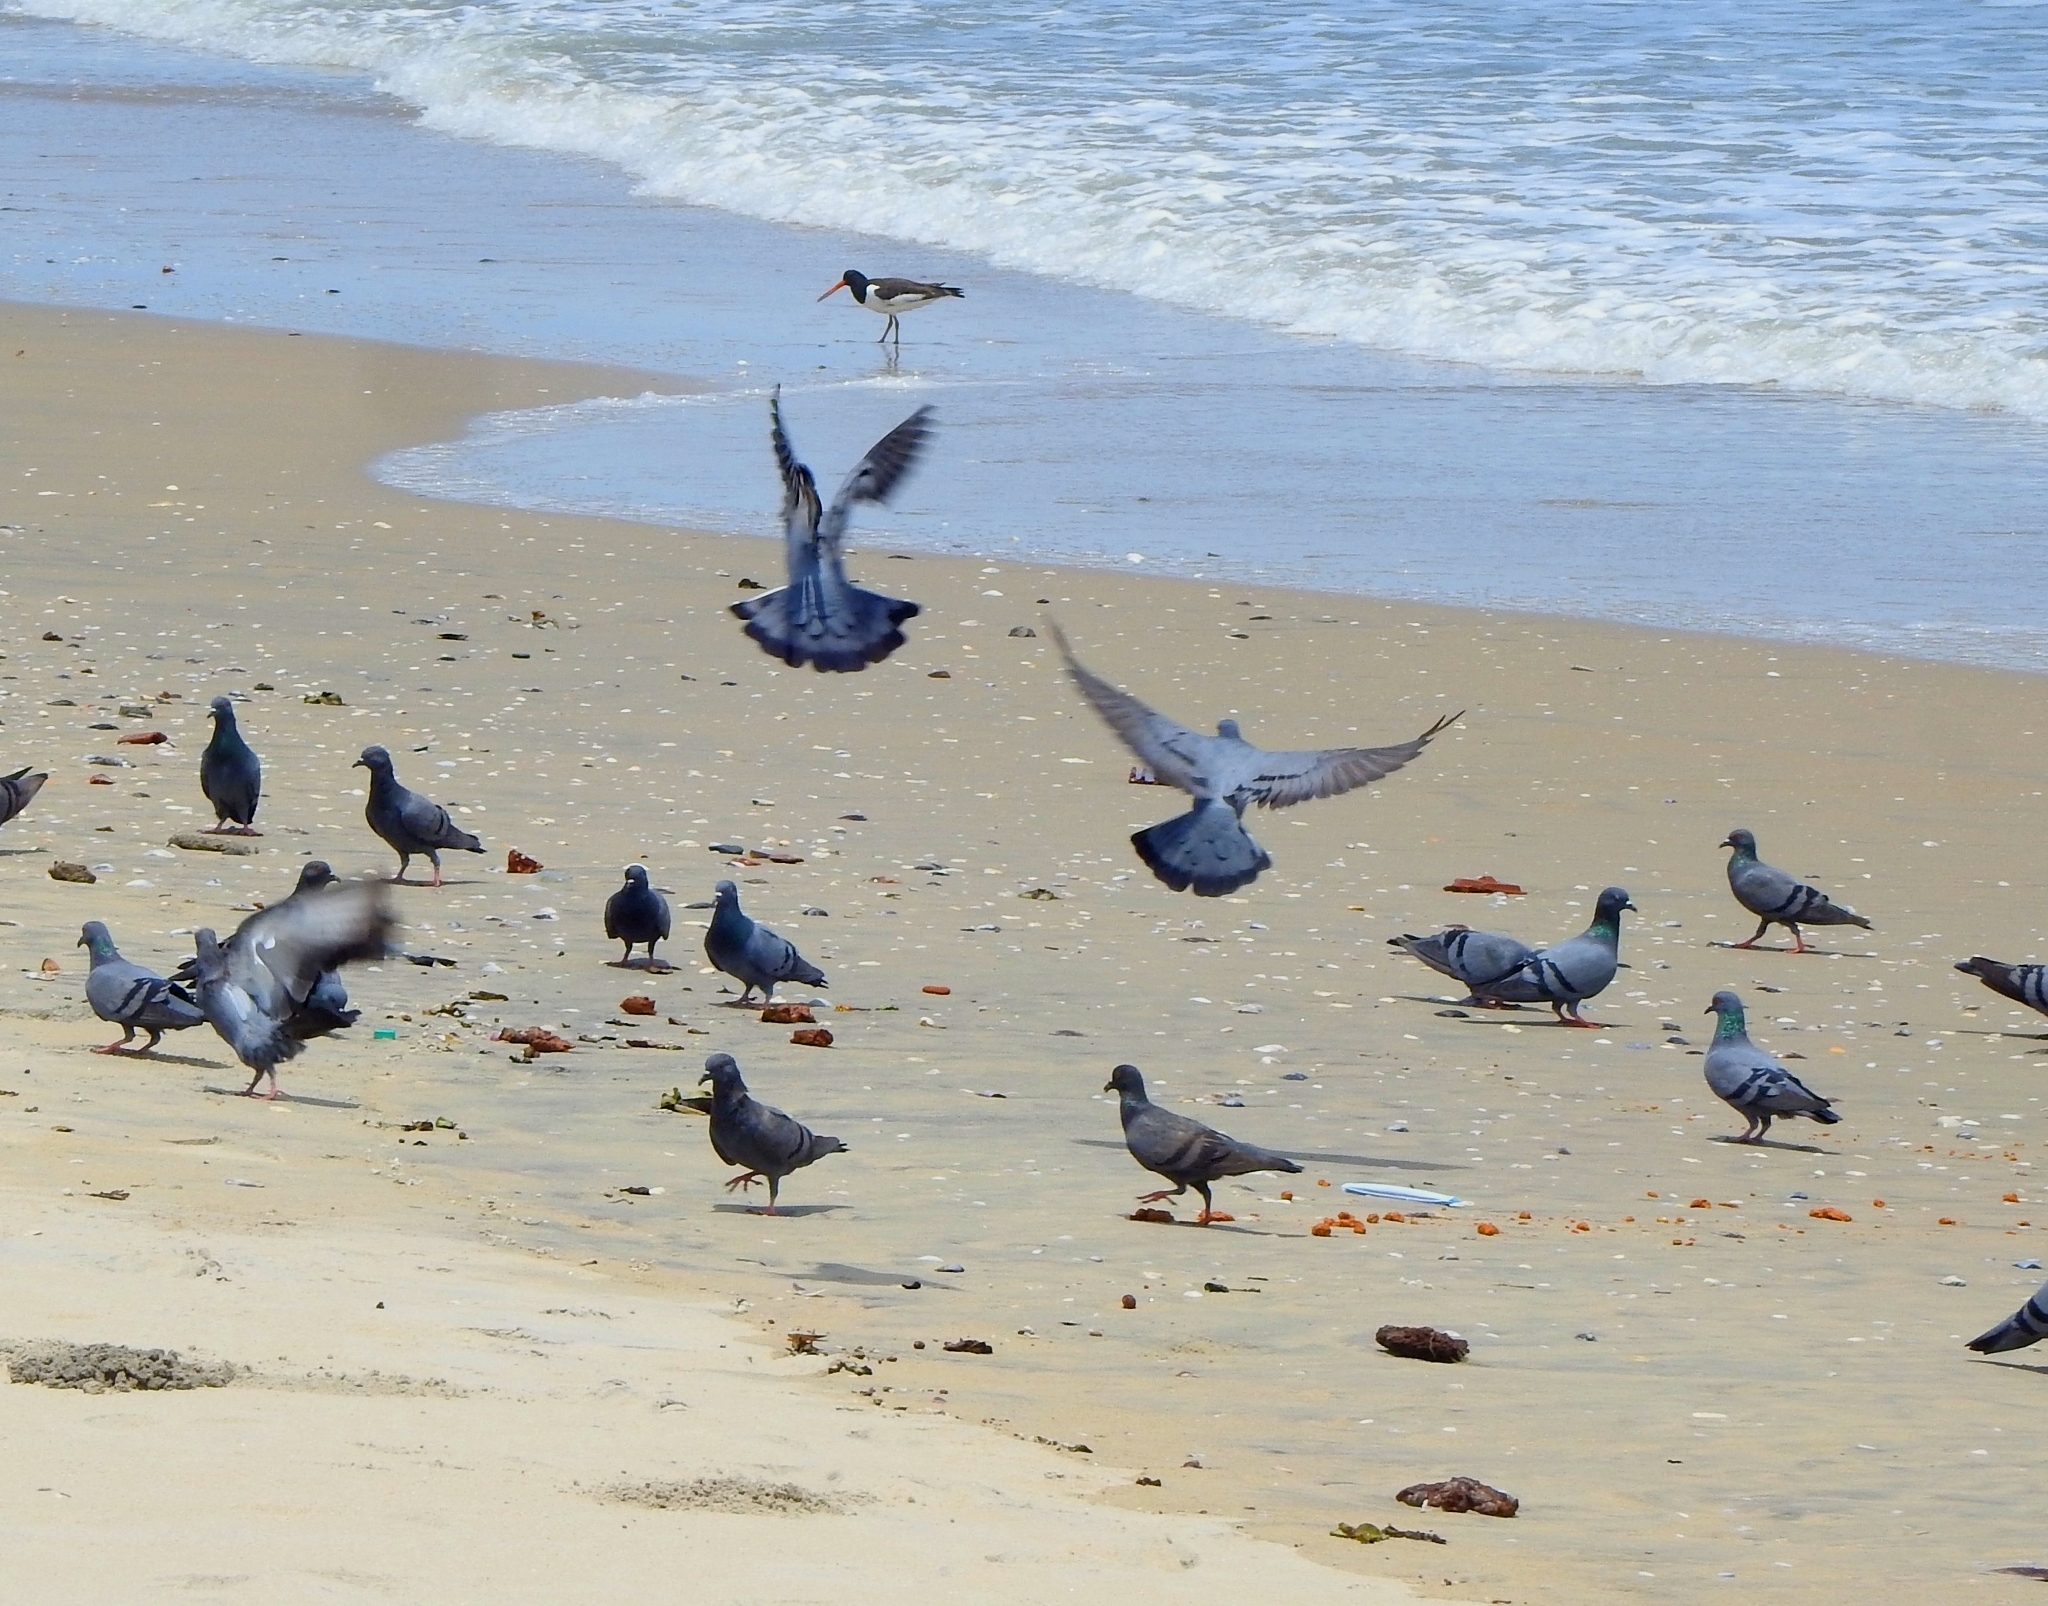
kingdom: Animalia
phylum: Chordata
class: Aves
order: Columbiformes
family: Columbidae
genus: Columba
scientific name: Columba livia
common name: Rock pigeon
